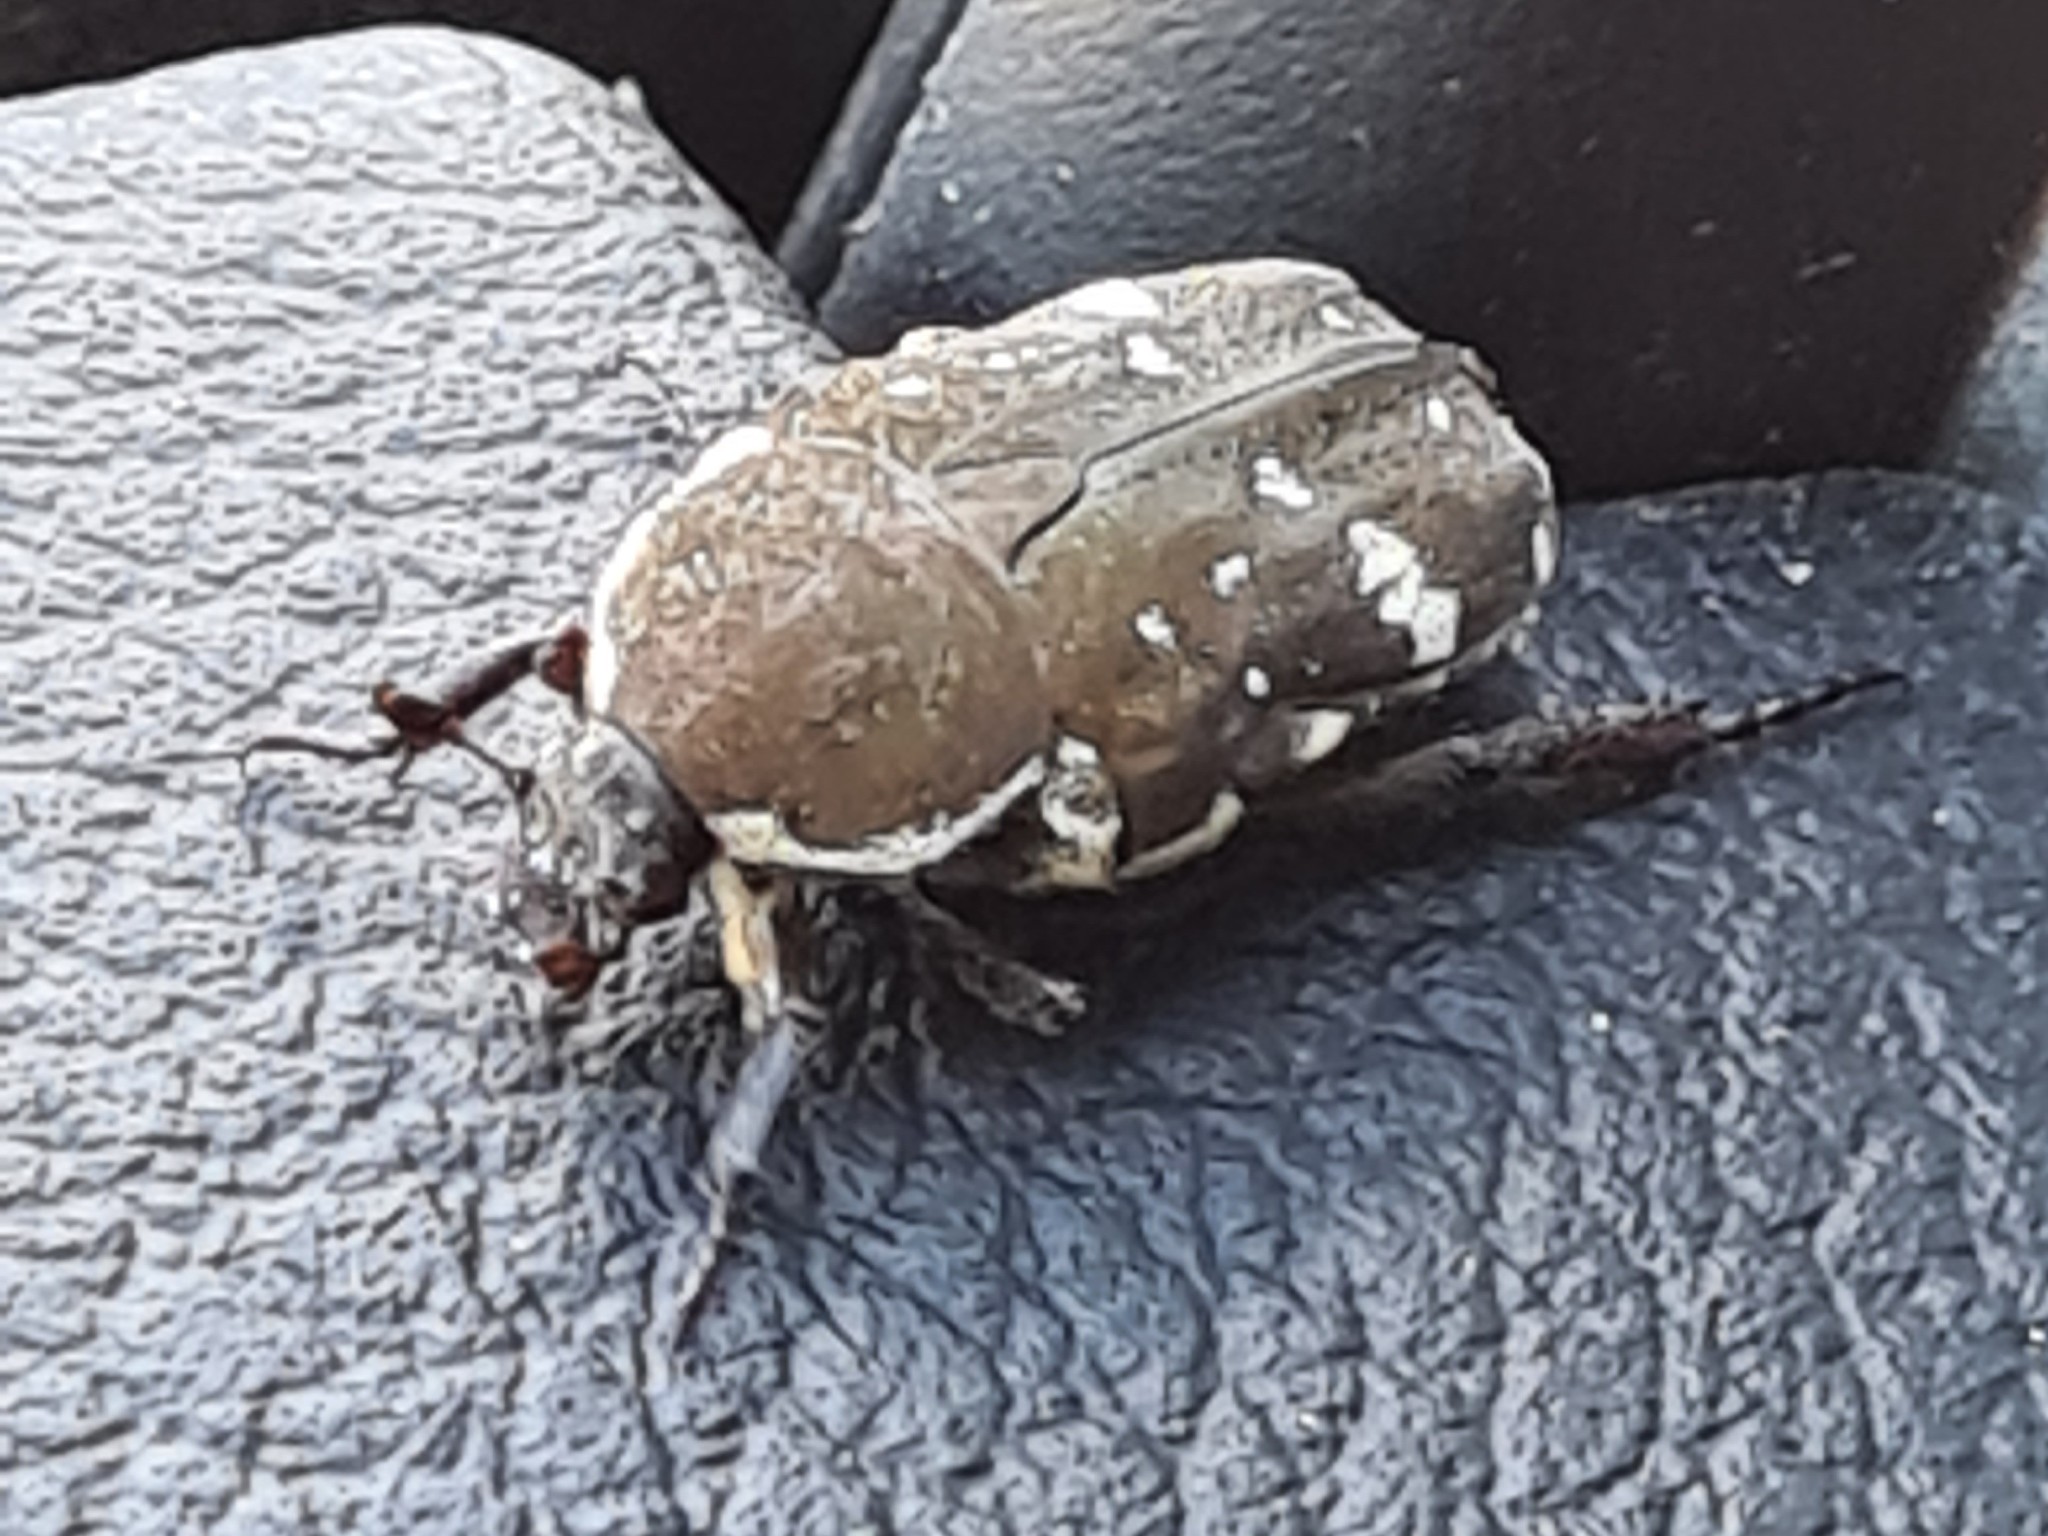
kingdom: Animalia
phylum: Arthropoda
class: Insecta
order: Coleoptera
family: Scarabaeidae
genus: Glycyphana
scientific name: Glycyphana stolata
